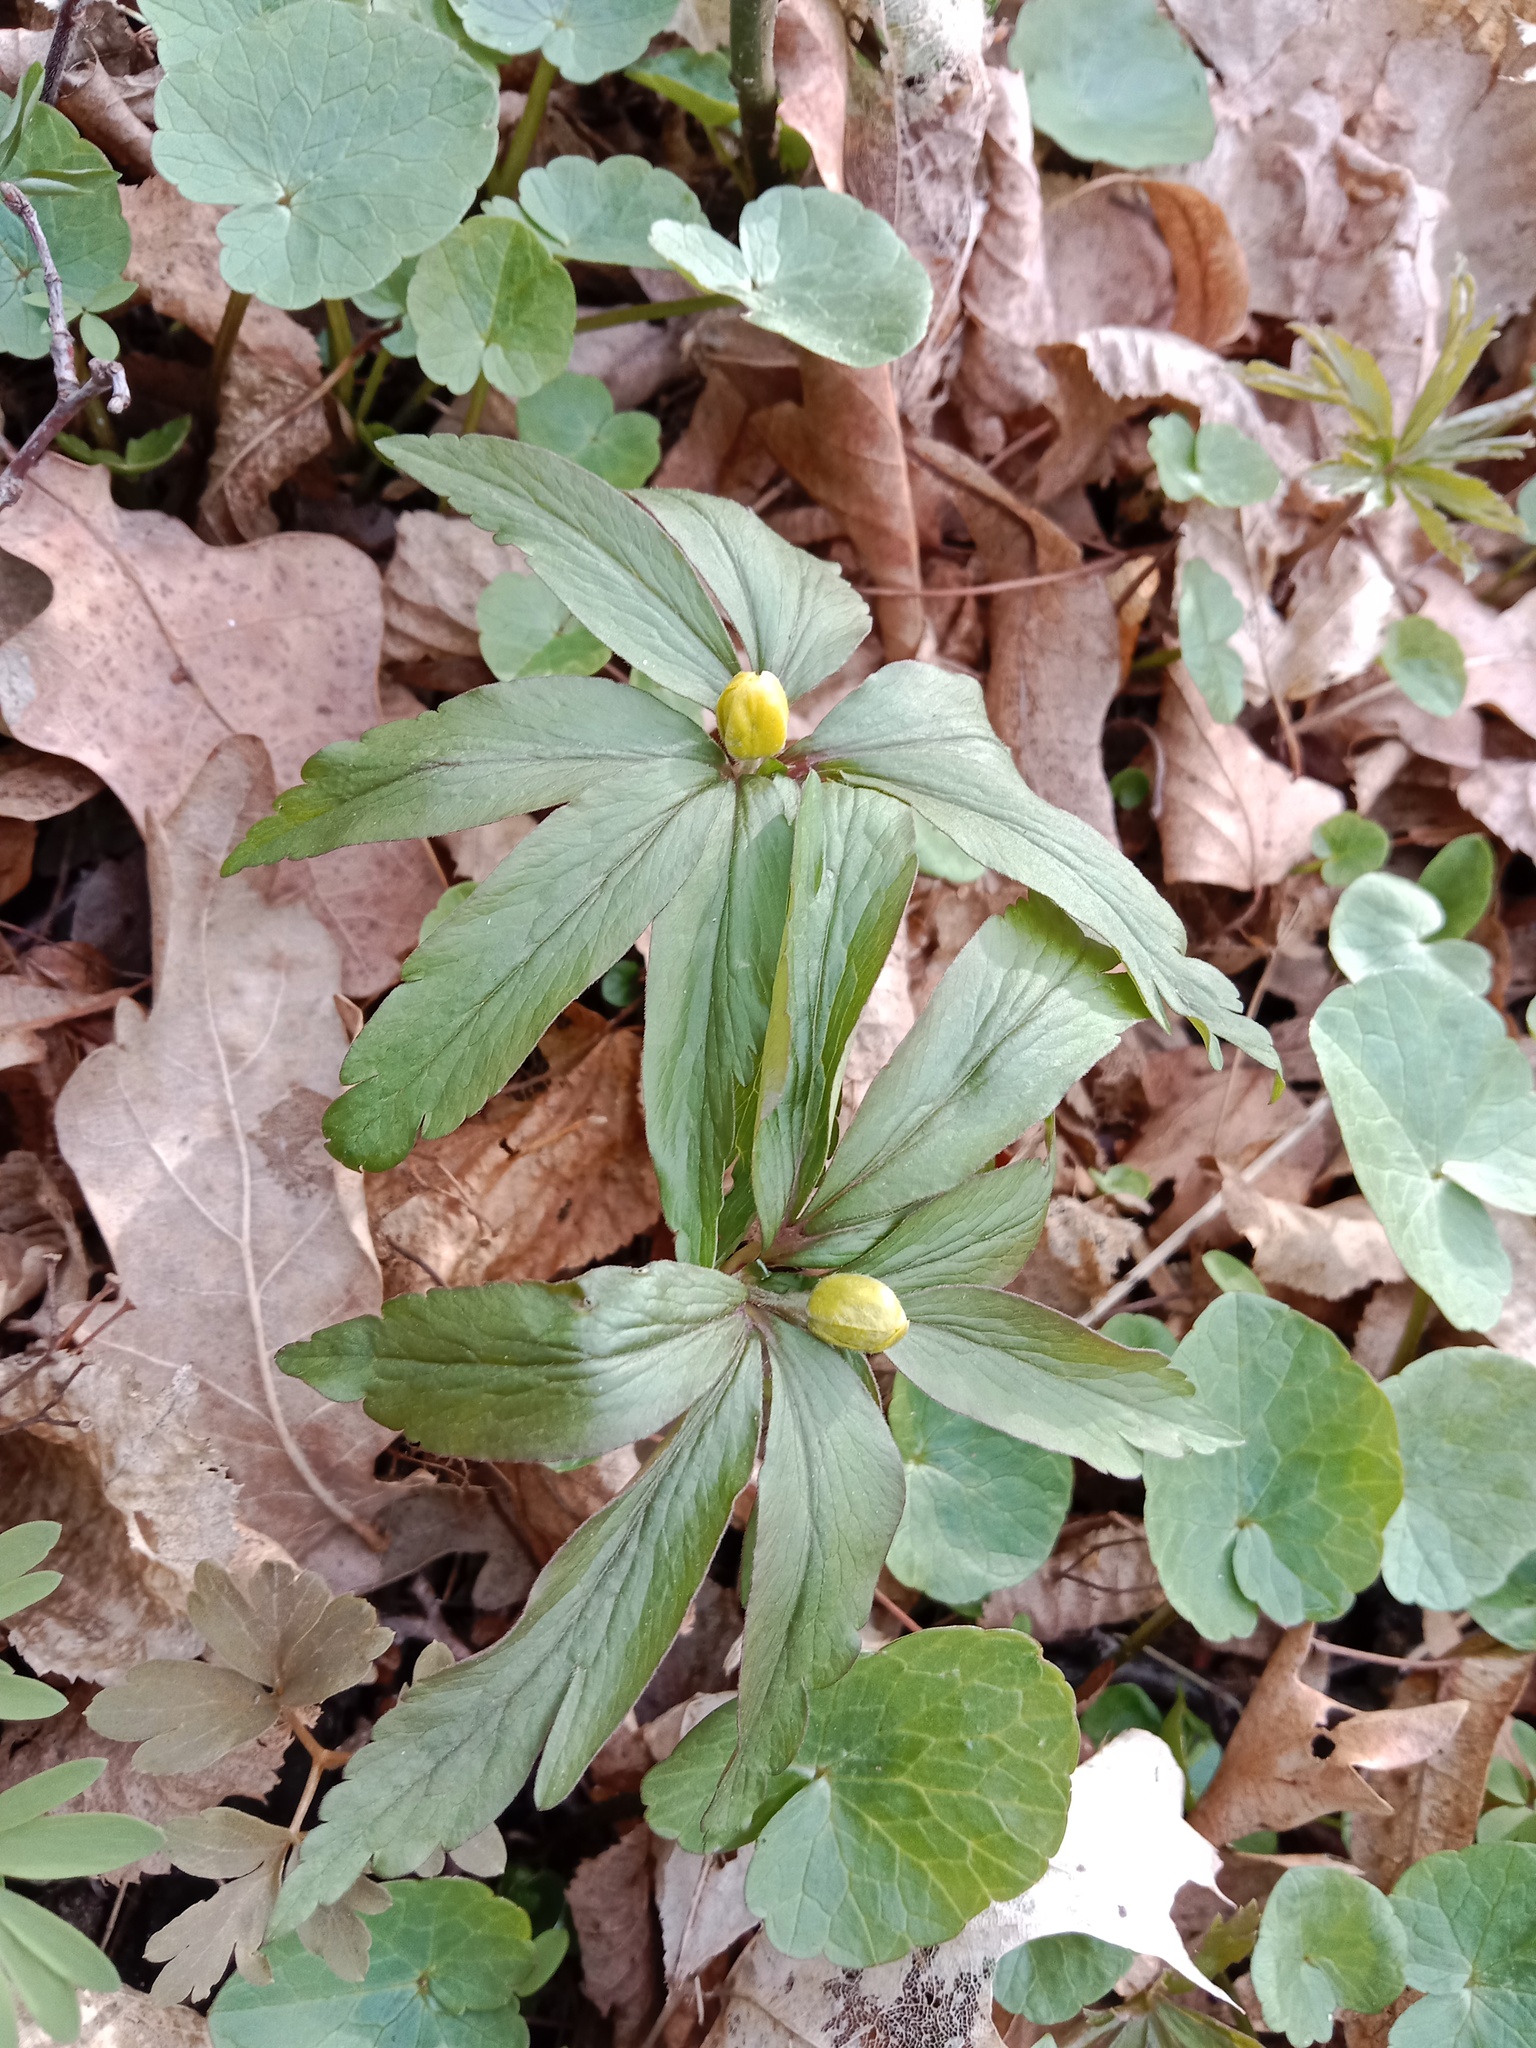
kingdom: Plantae
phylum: Tracheophyta
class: Magnoliopsida
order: Ranunculales
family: Ranunculaceae
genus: Anemone
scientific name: Anemone ranunculoides
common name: Yellow anemone
